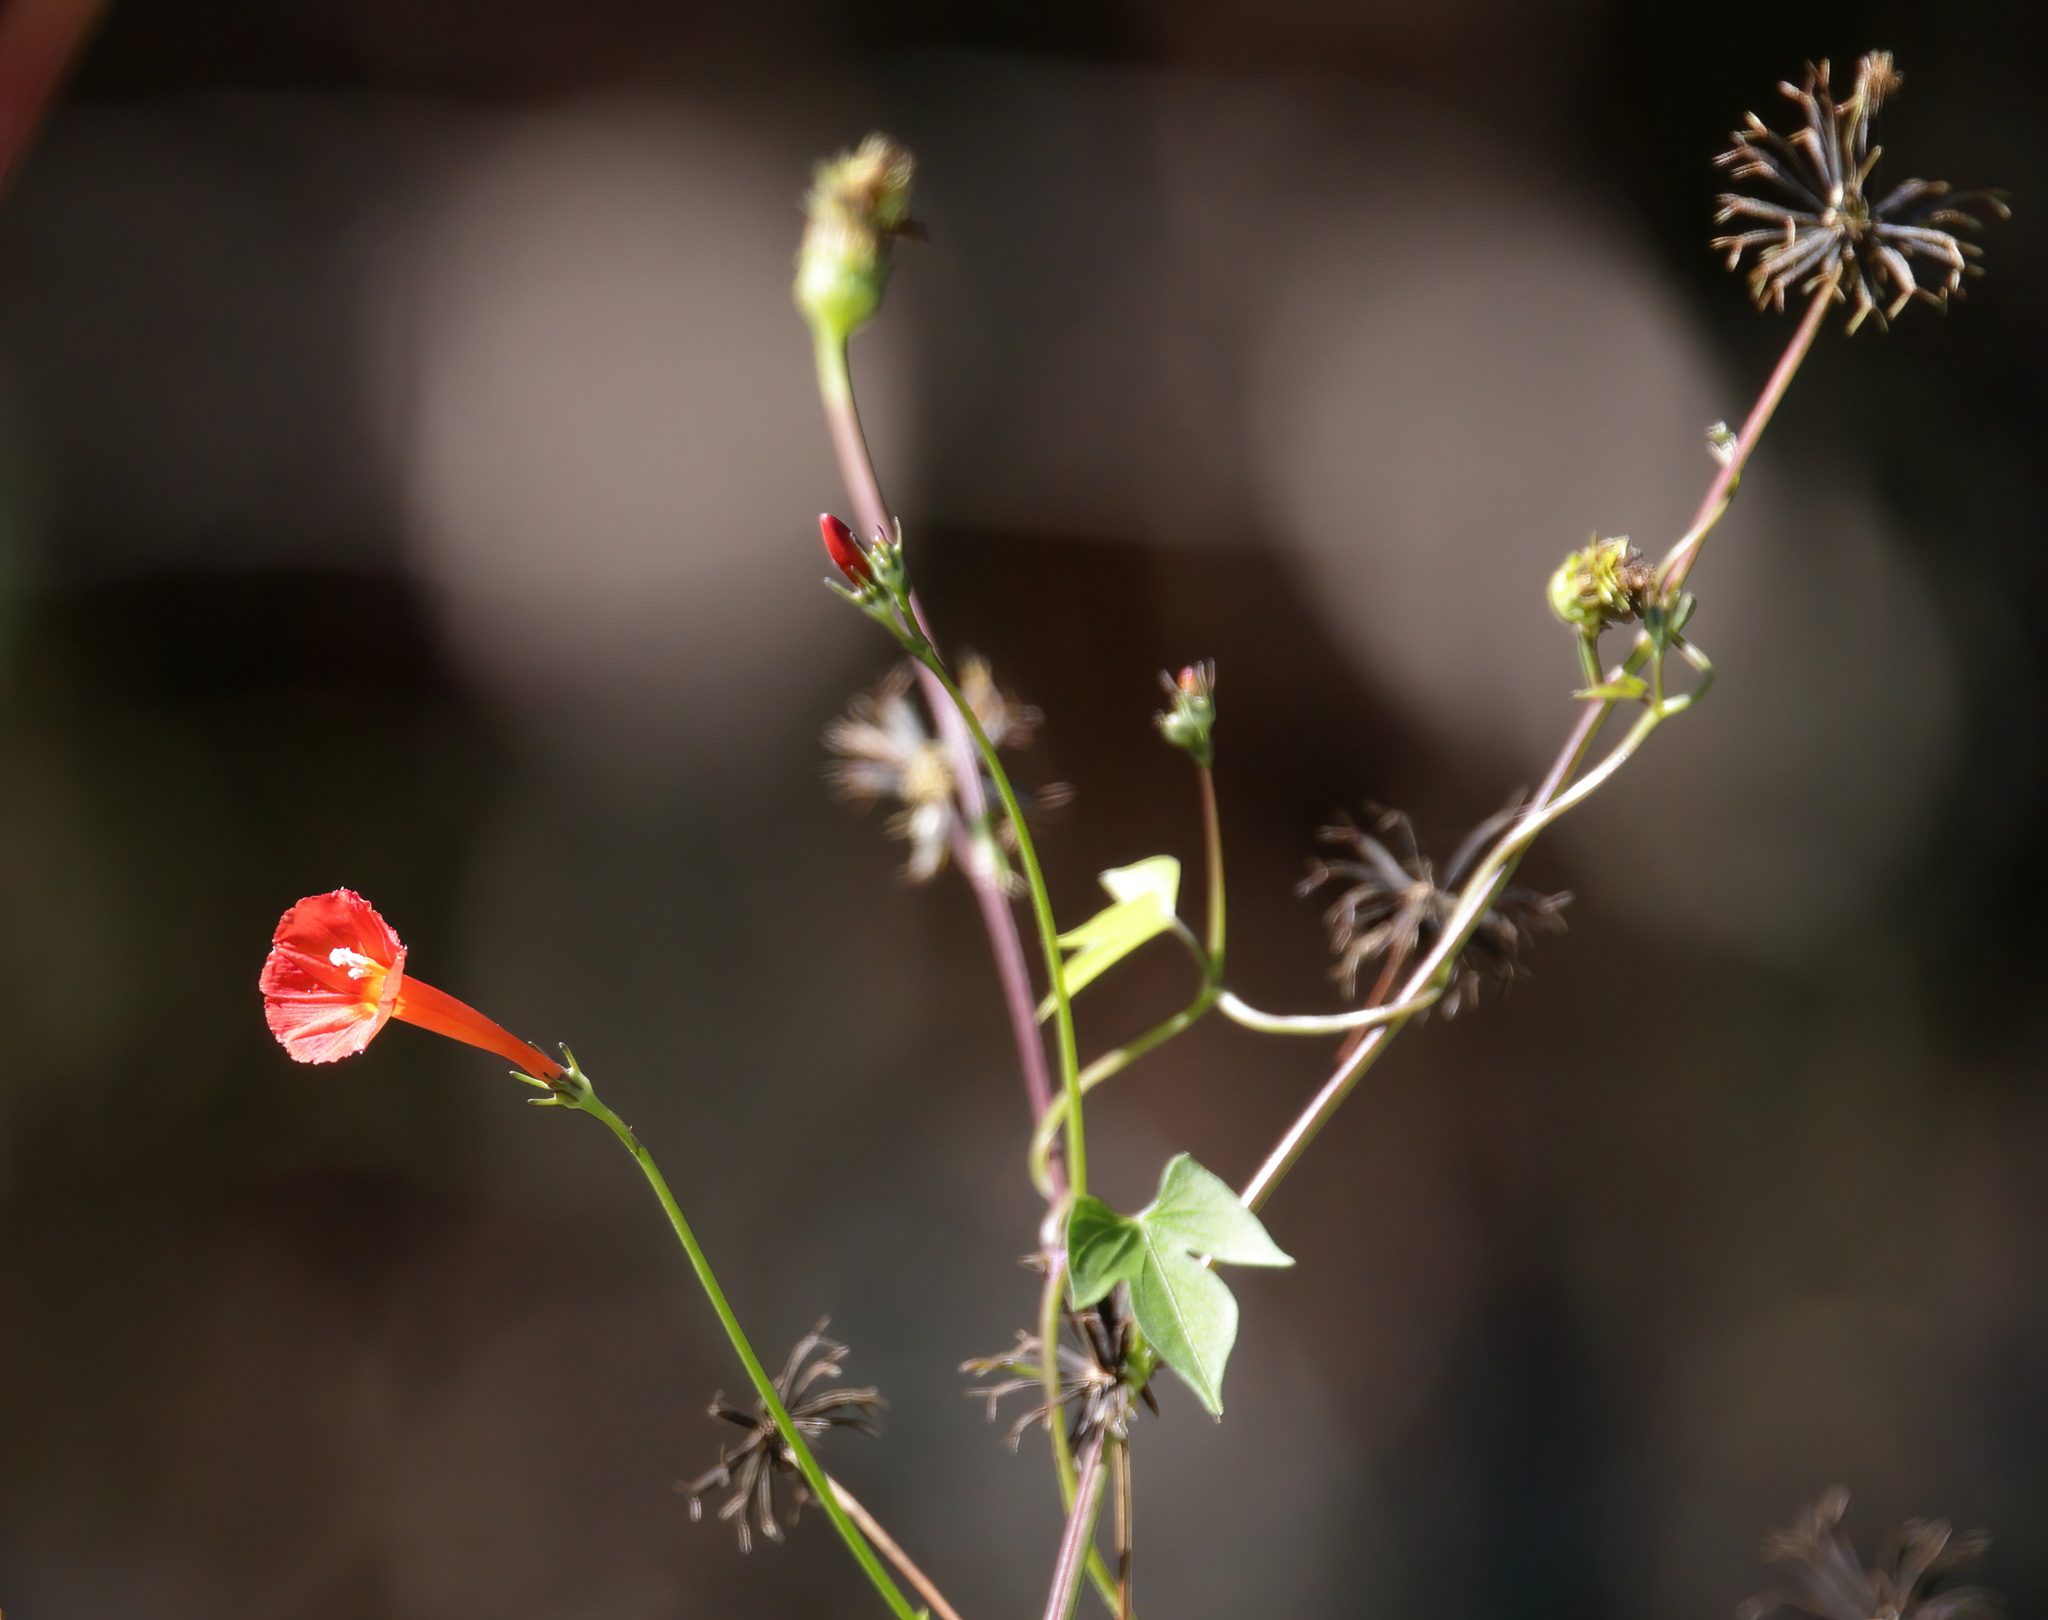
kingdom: Plantae
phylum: Tracheophyta
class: Magnoliopsida
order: Solanales
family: Convolvulaceae
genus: Ipomoea
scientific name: Ipomoea hederifolia
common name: Ivy-leaf morning-glory
